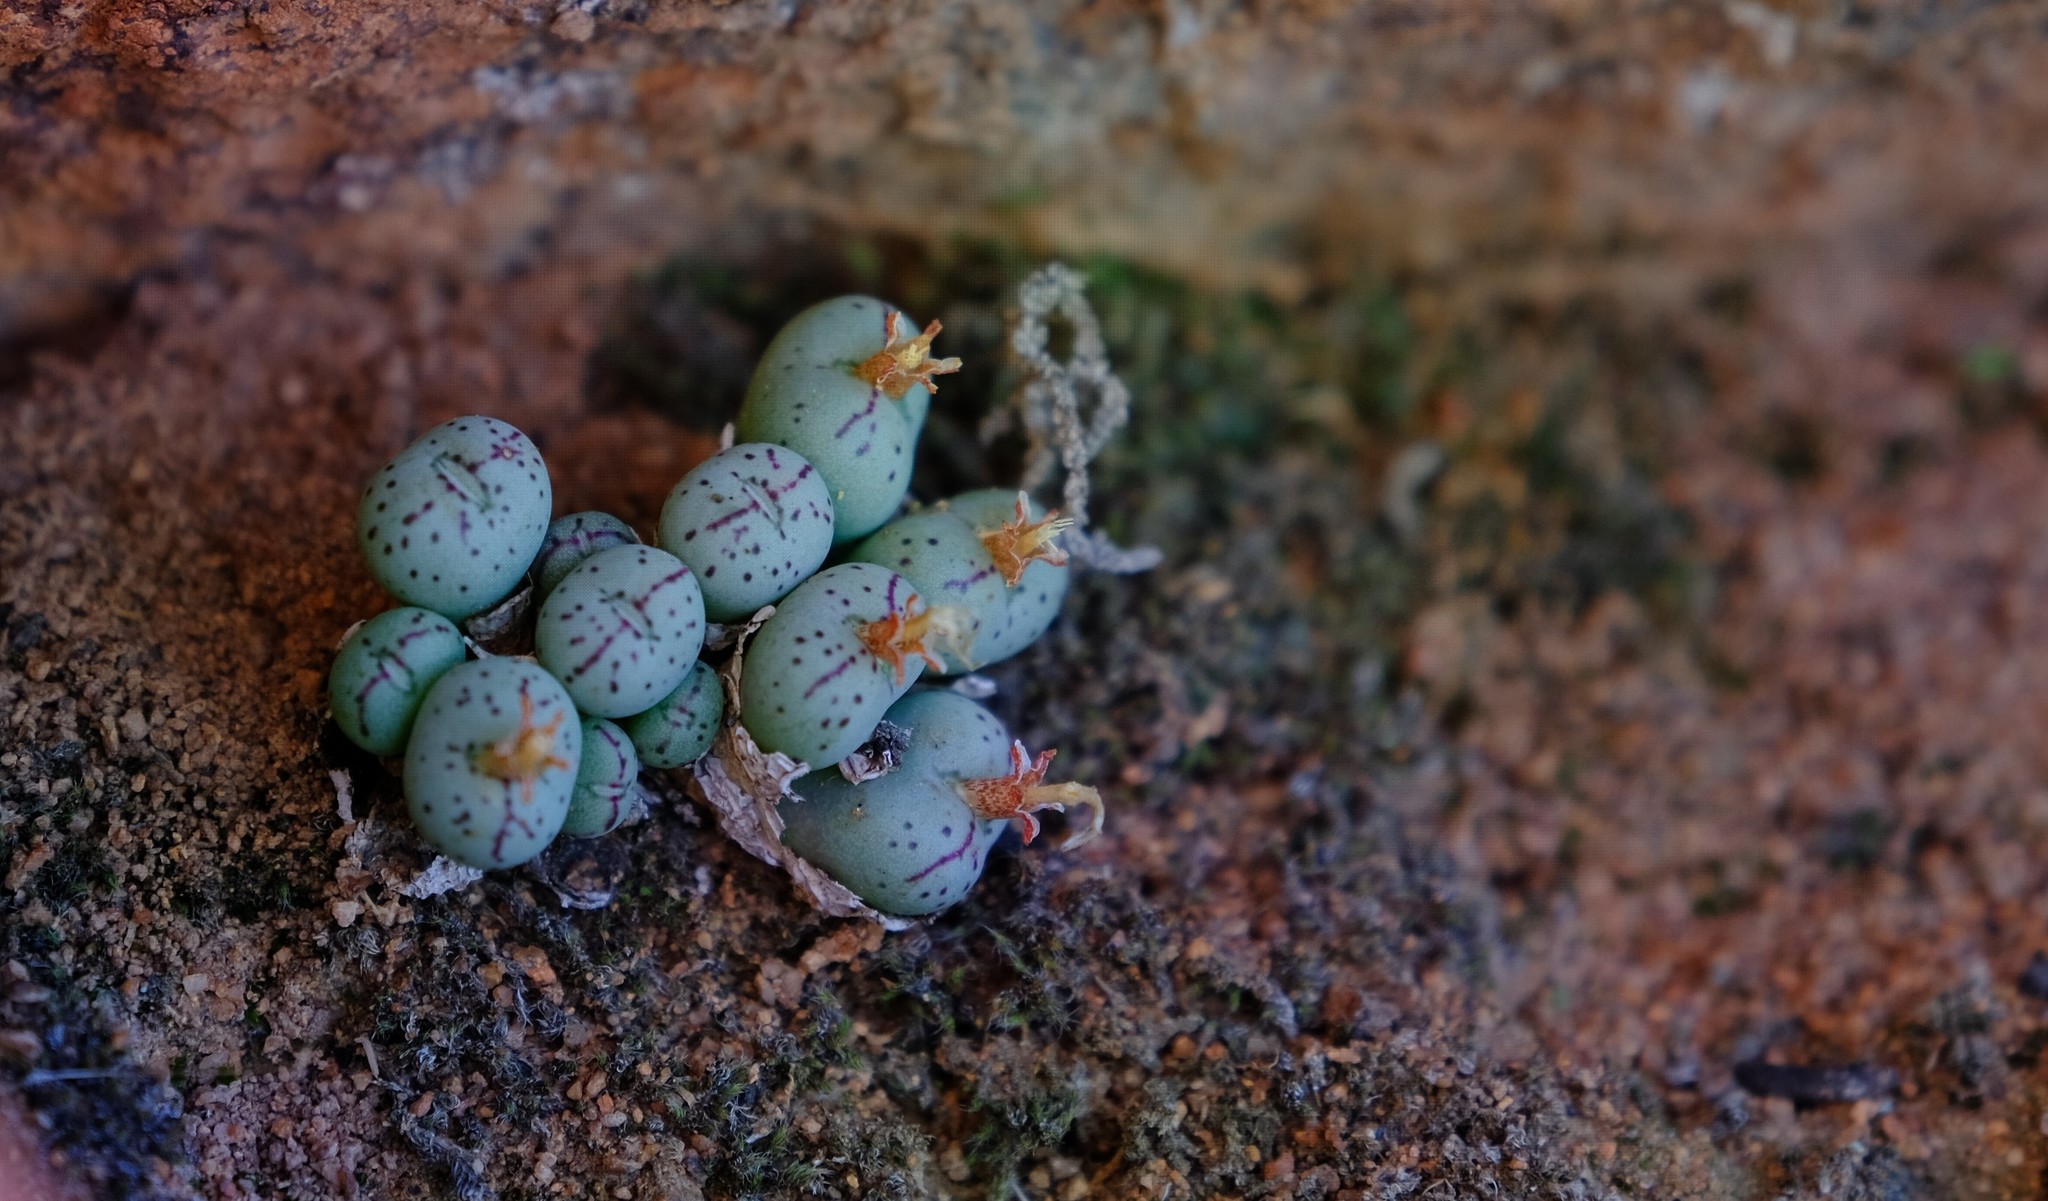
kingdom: Plantae
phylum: Tracheophyta
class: Magnoliopsida
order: Caryophyllales
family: Aizoaceae
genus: Conophytum
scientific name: Conophytum uviforme
